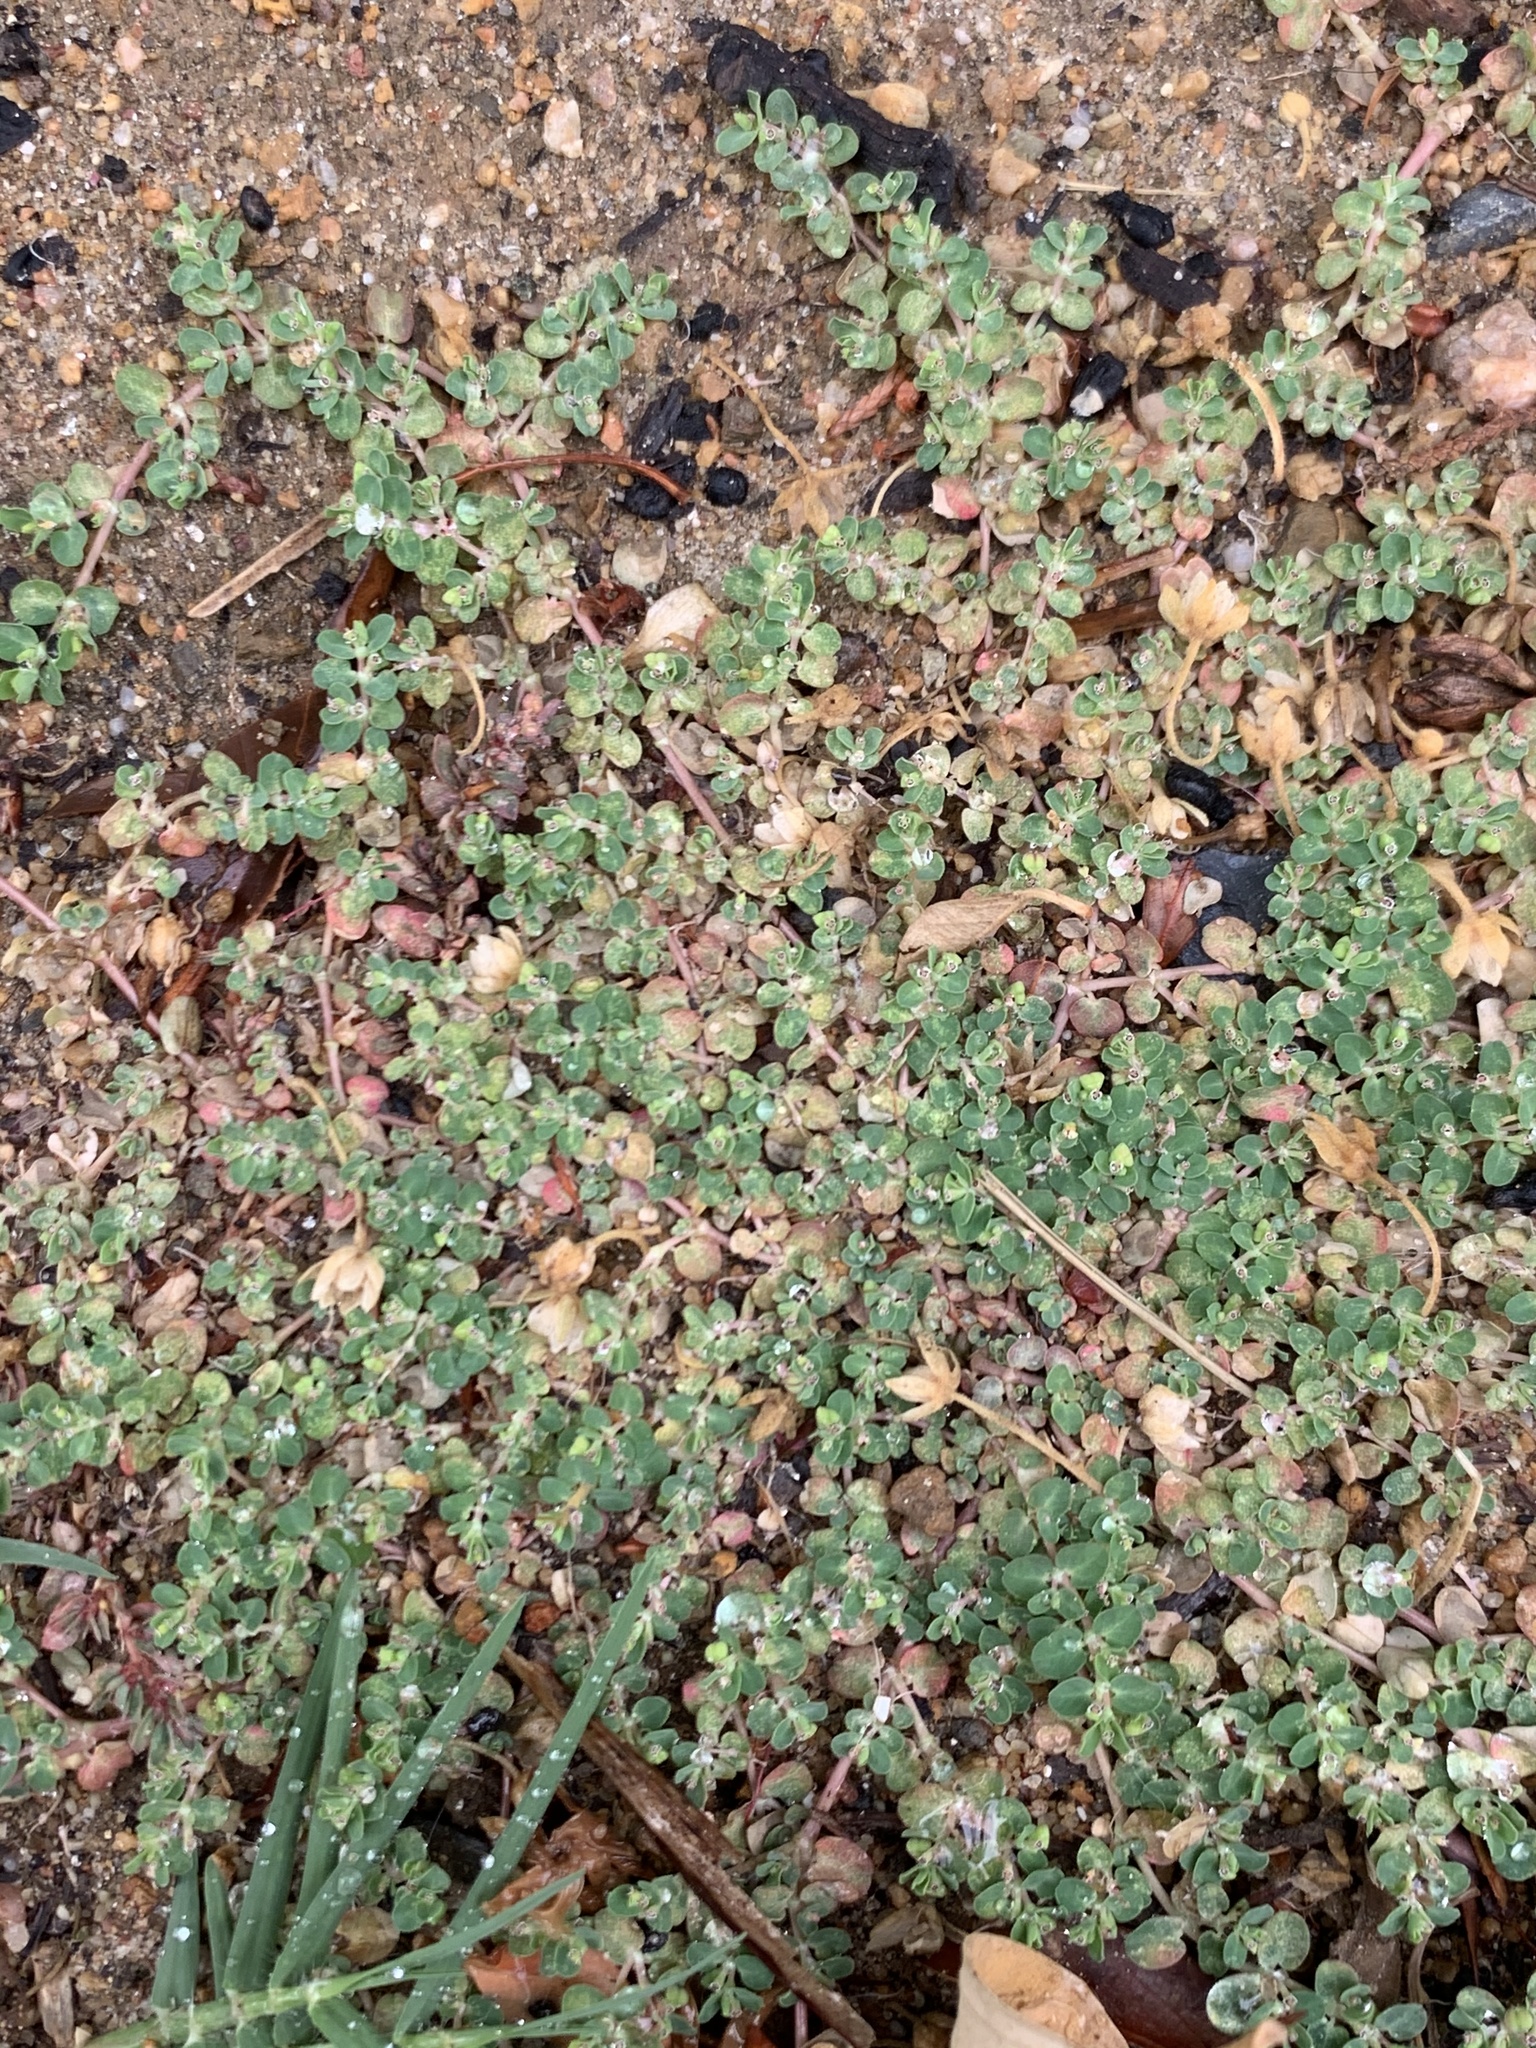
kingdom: Plantae
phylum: Tracheophyta
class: Magnoliopsida
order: Malpighiales
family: Euphorbiaceae
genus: Euphorbia
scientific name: Euphorbia serpens
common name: Matted sandmat
